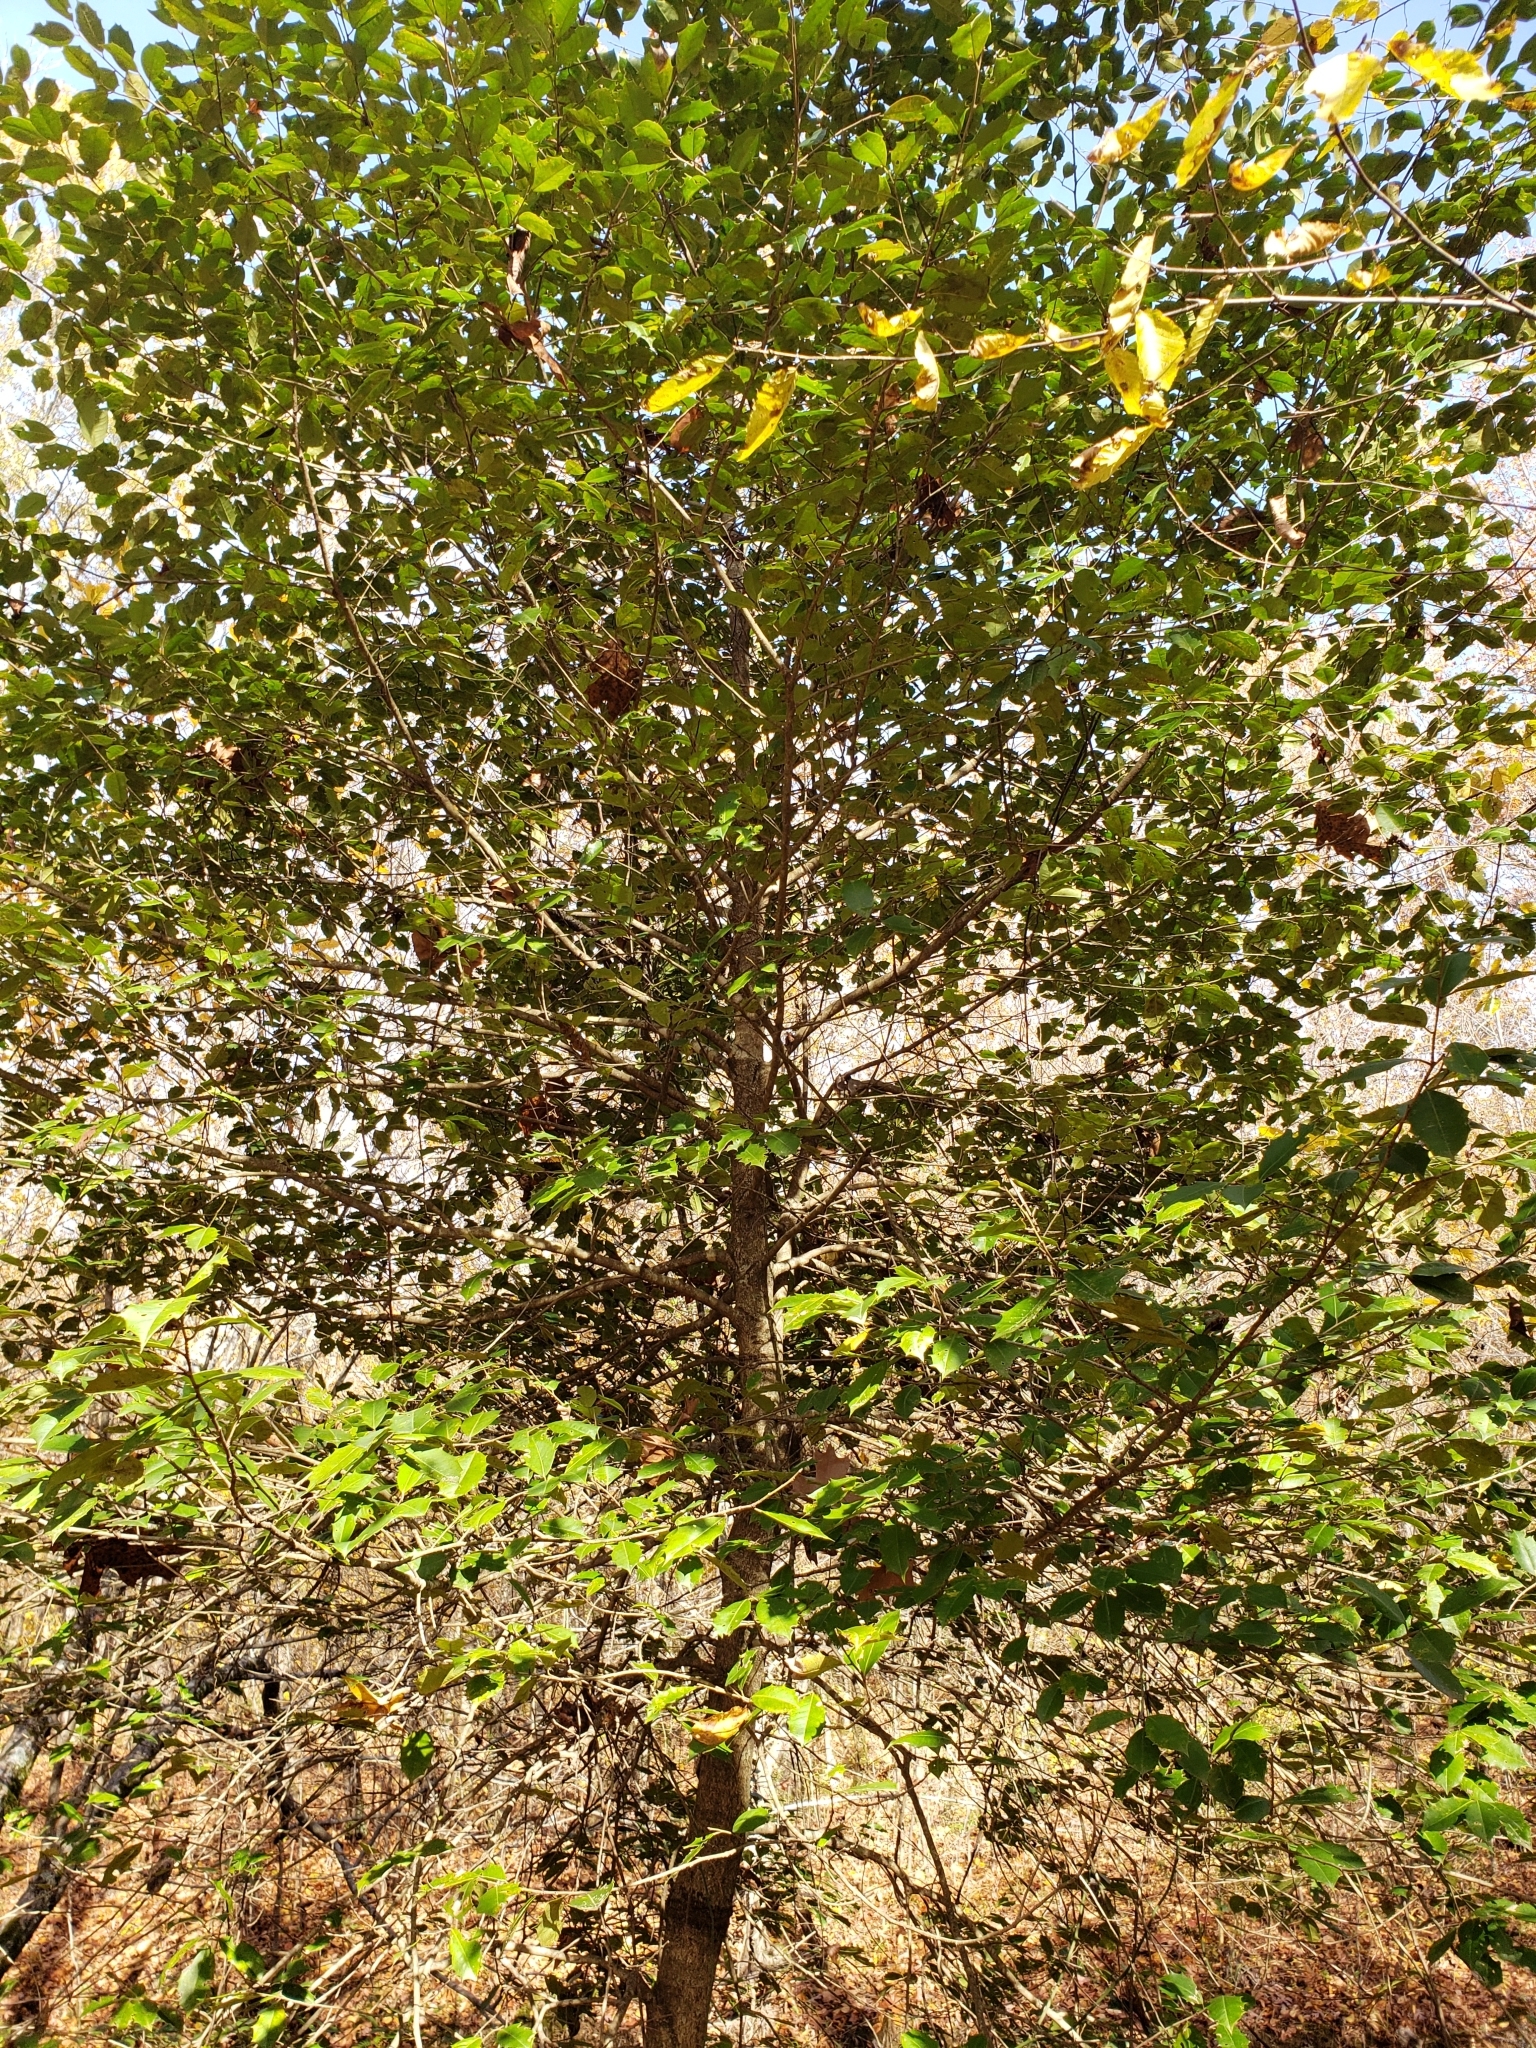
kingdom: Plantae
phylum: Tracheophyta
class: Magnoliopsida
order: Aquifoliales
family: Aquifoliaceae
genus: Ilex
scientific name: Ilex opaca
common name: American holly
